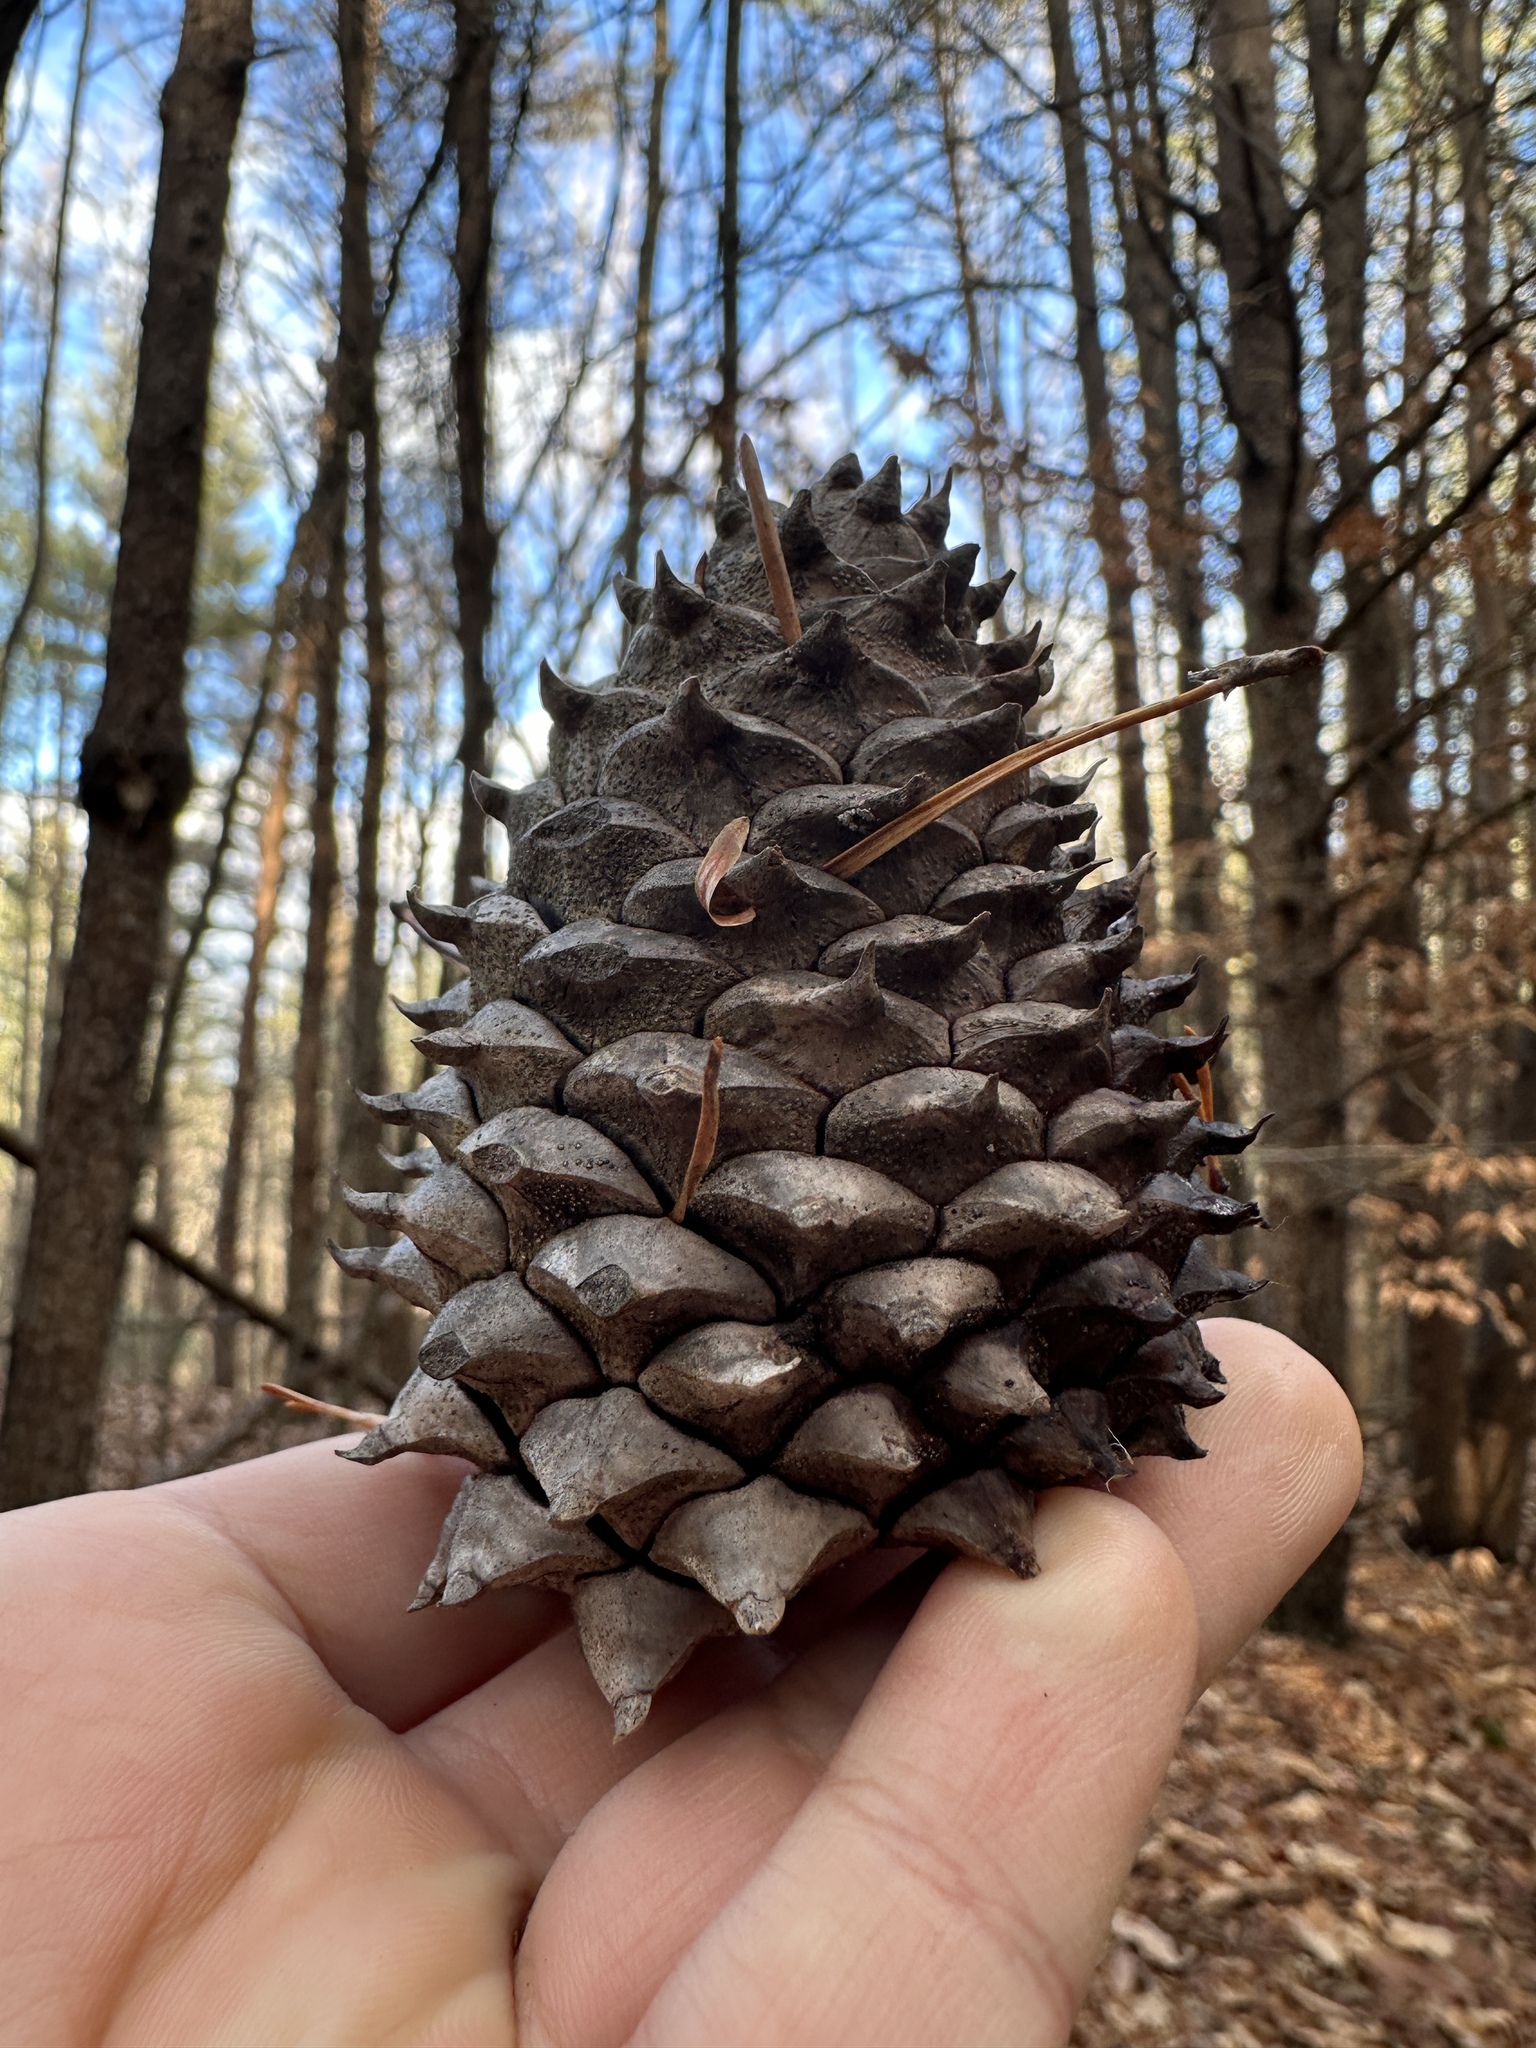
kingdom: Plantae
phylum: Tracheophyta
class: Pinopsida
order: Pinales
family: Pinaceae
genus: Pinus
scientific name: Pinus pungens
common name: Hickory pine
